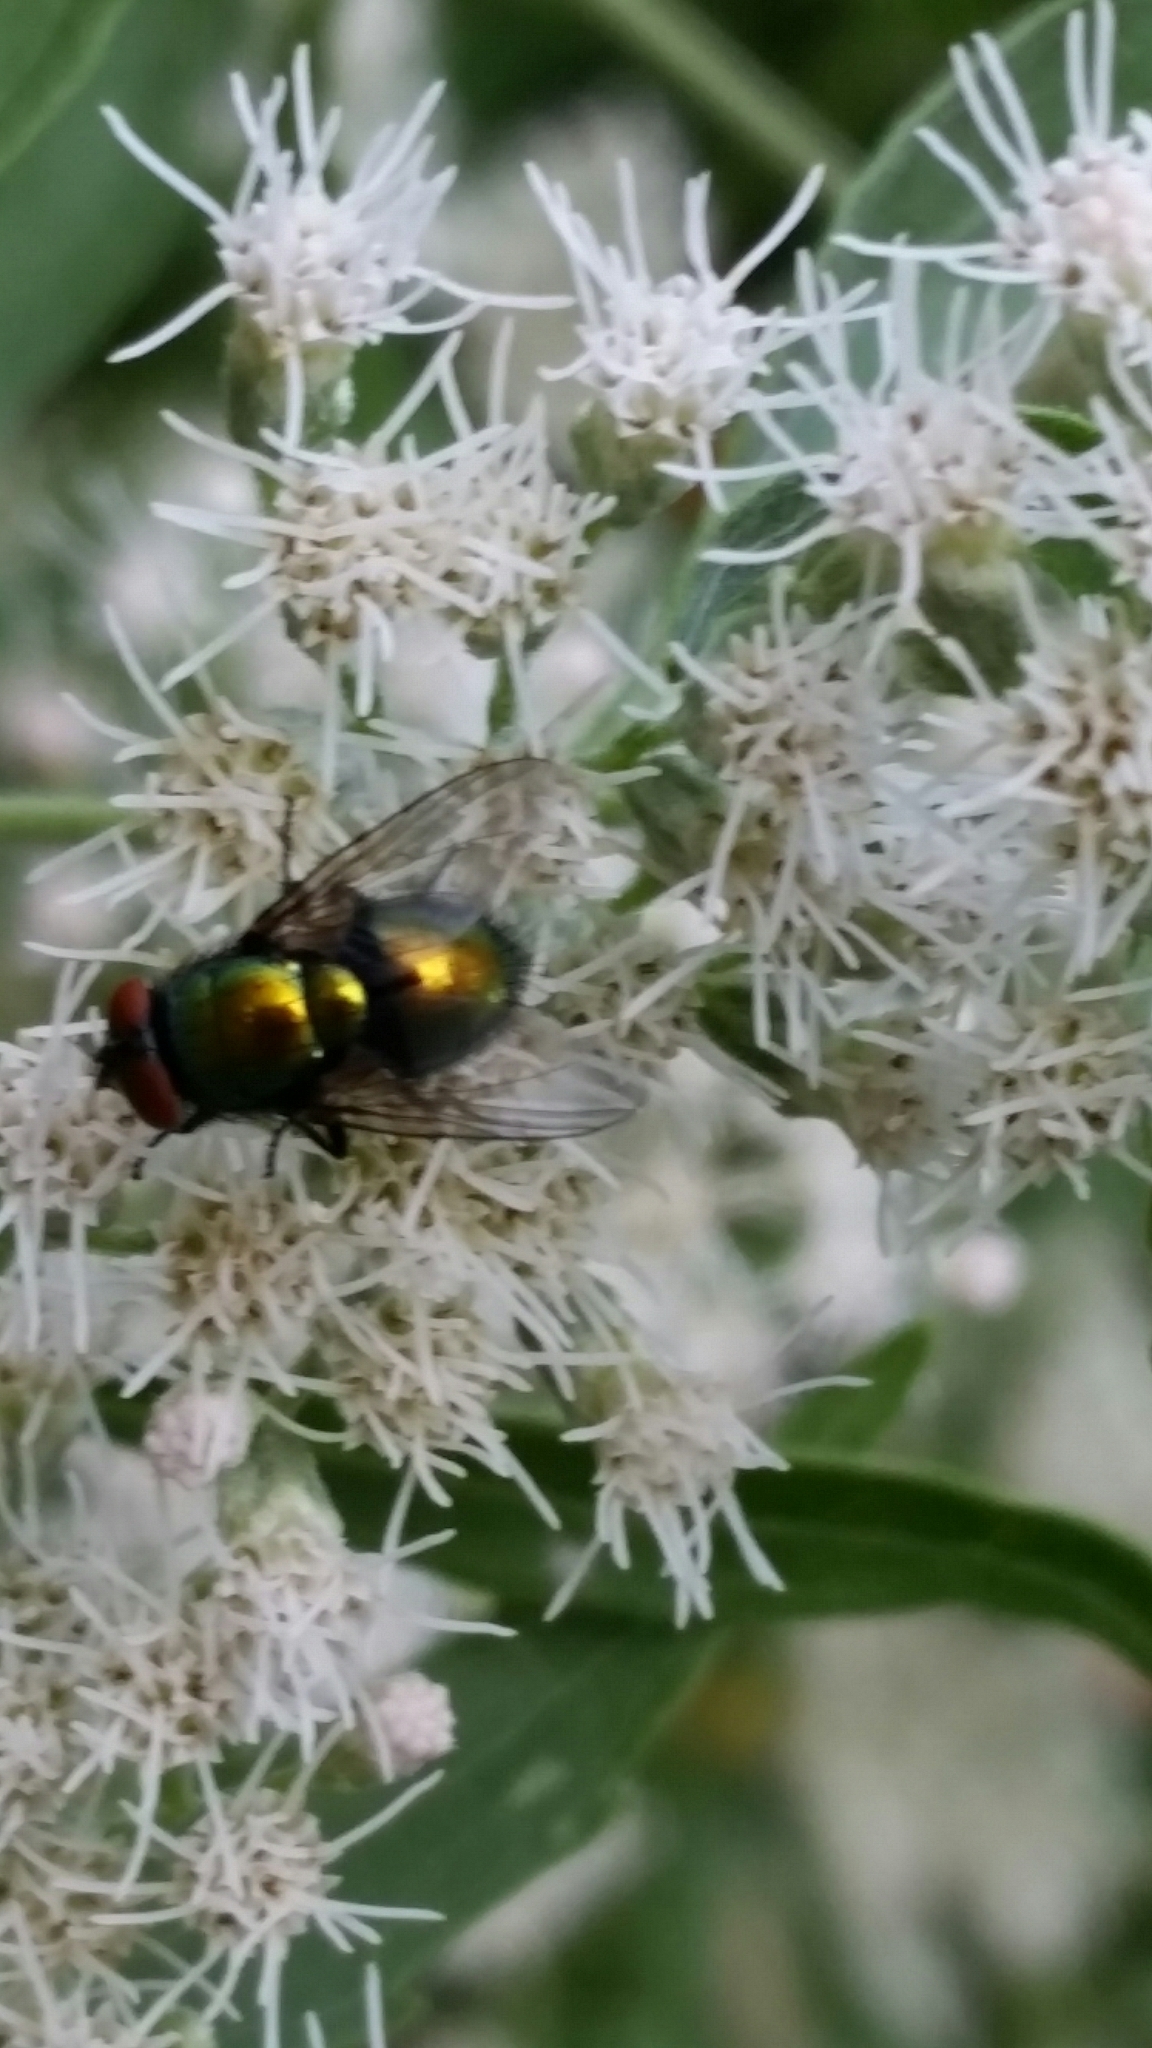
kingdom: Animalia
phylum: Arthropoda
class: Insecta
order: Diptera
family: Calliphoridae
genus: Lucilia
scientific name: Lucilia sericata
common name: Blow fly
